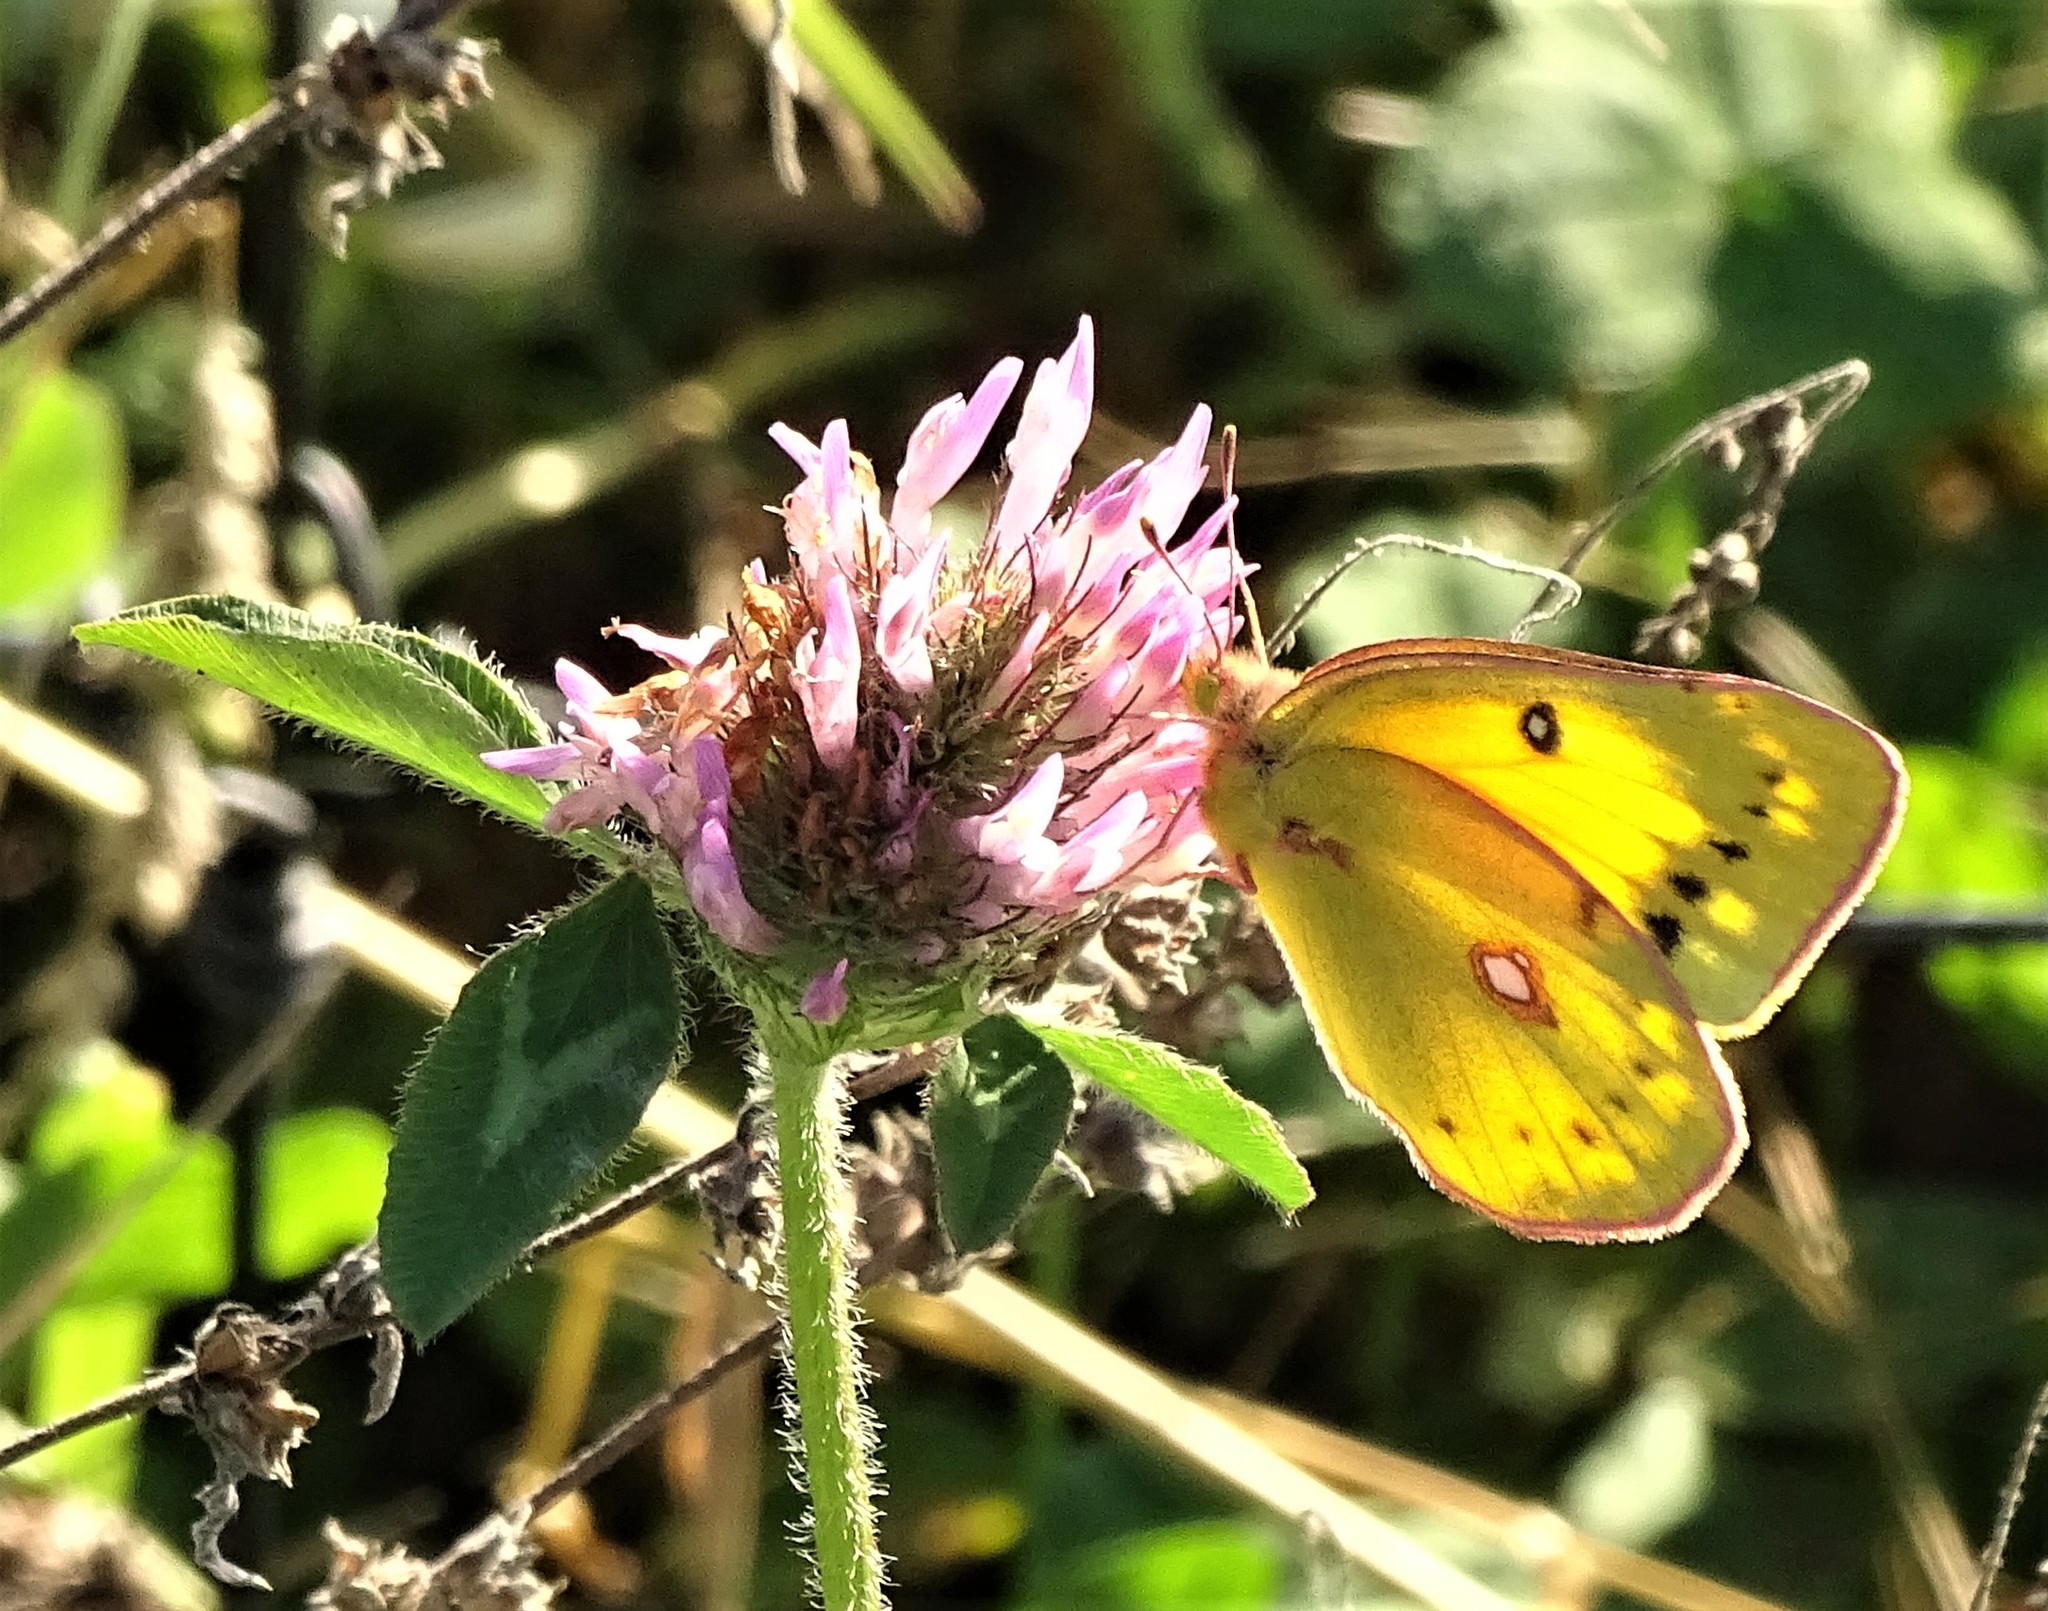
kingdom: Animalia
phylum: Arthropoda
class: Insecta
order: Lepidoptera
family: Pieridae
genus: Colias
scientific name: Colias eurytheme
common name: Alfalfa butterfly
